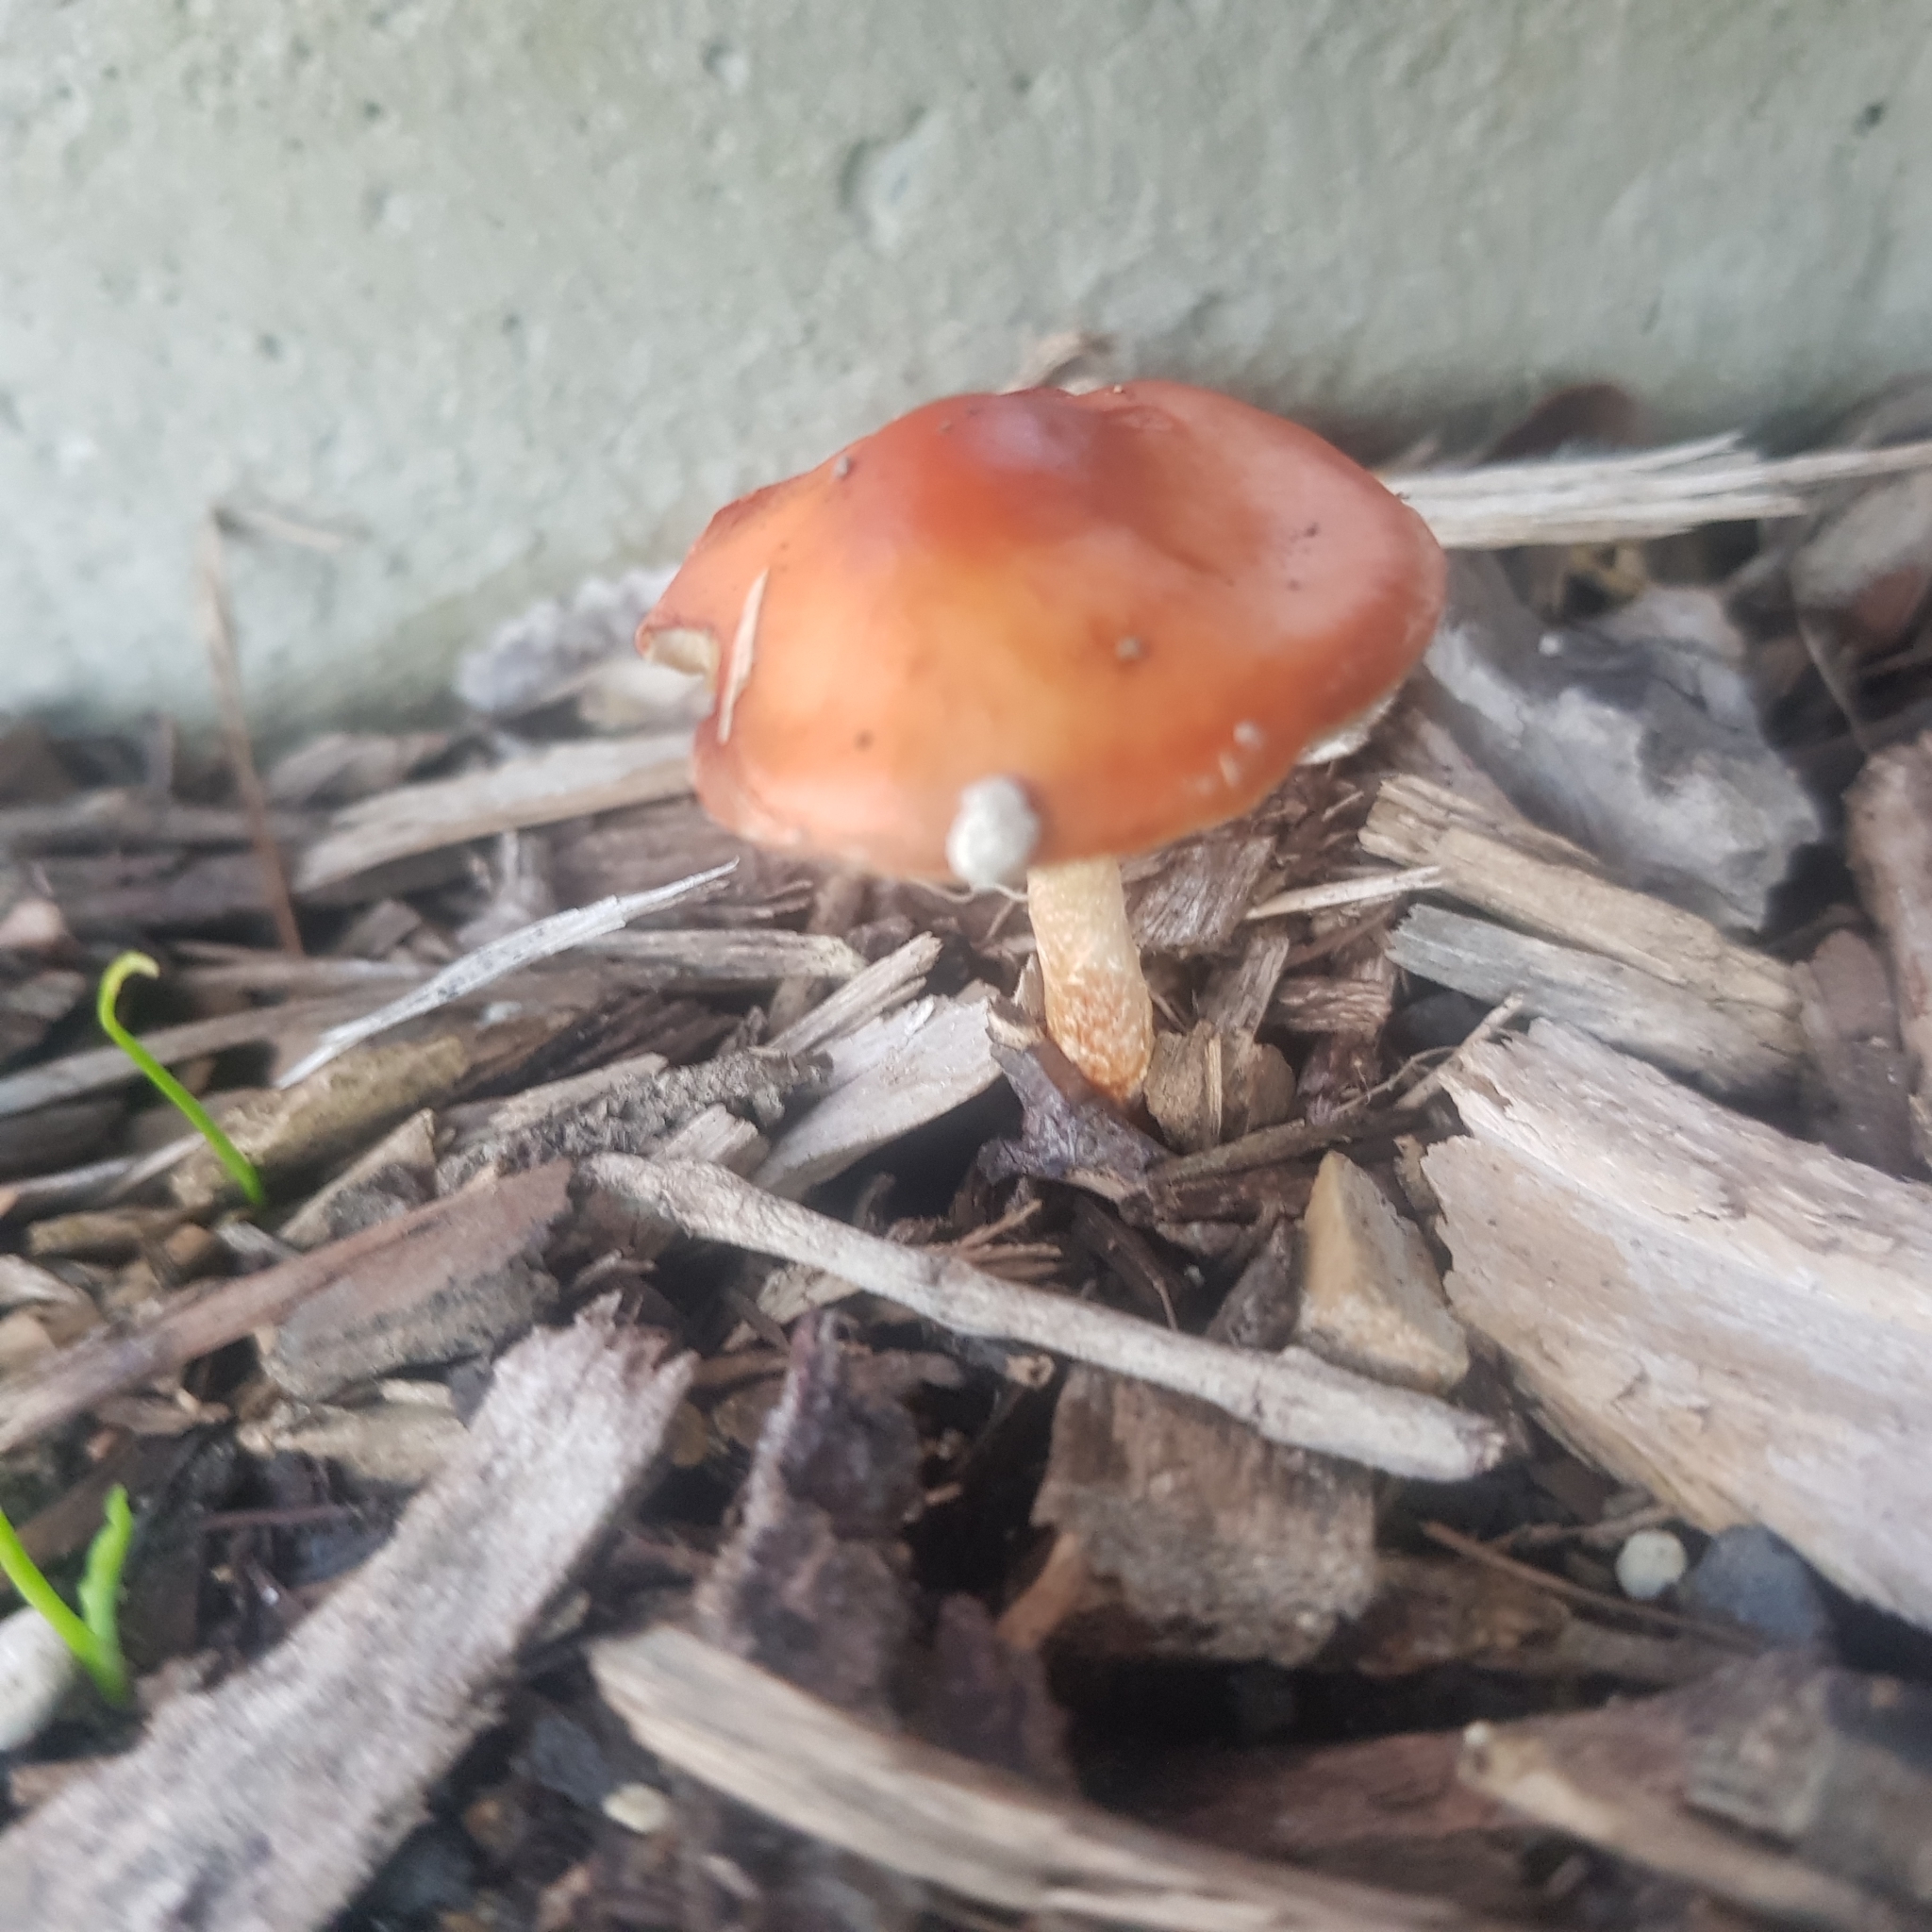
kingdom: Fungi
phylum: Basidiomycota
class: Agaricomycetes
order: Agaricales
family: Strophariaceae
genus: Leratiomyces
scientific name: Leratiomyces ceres
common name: Redlead roundhead
